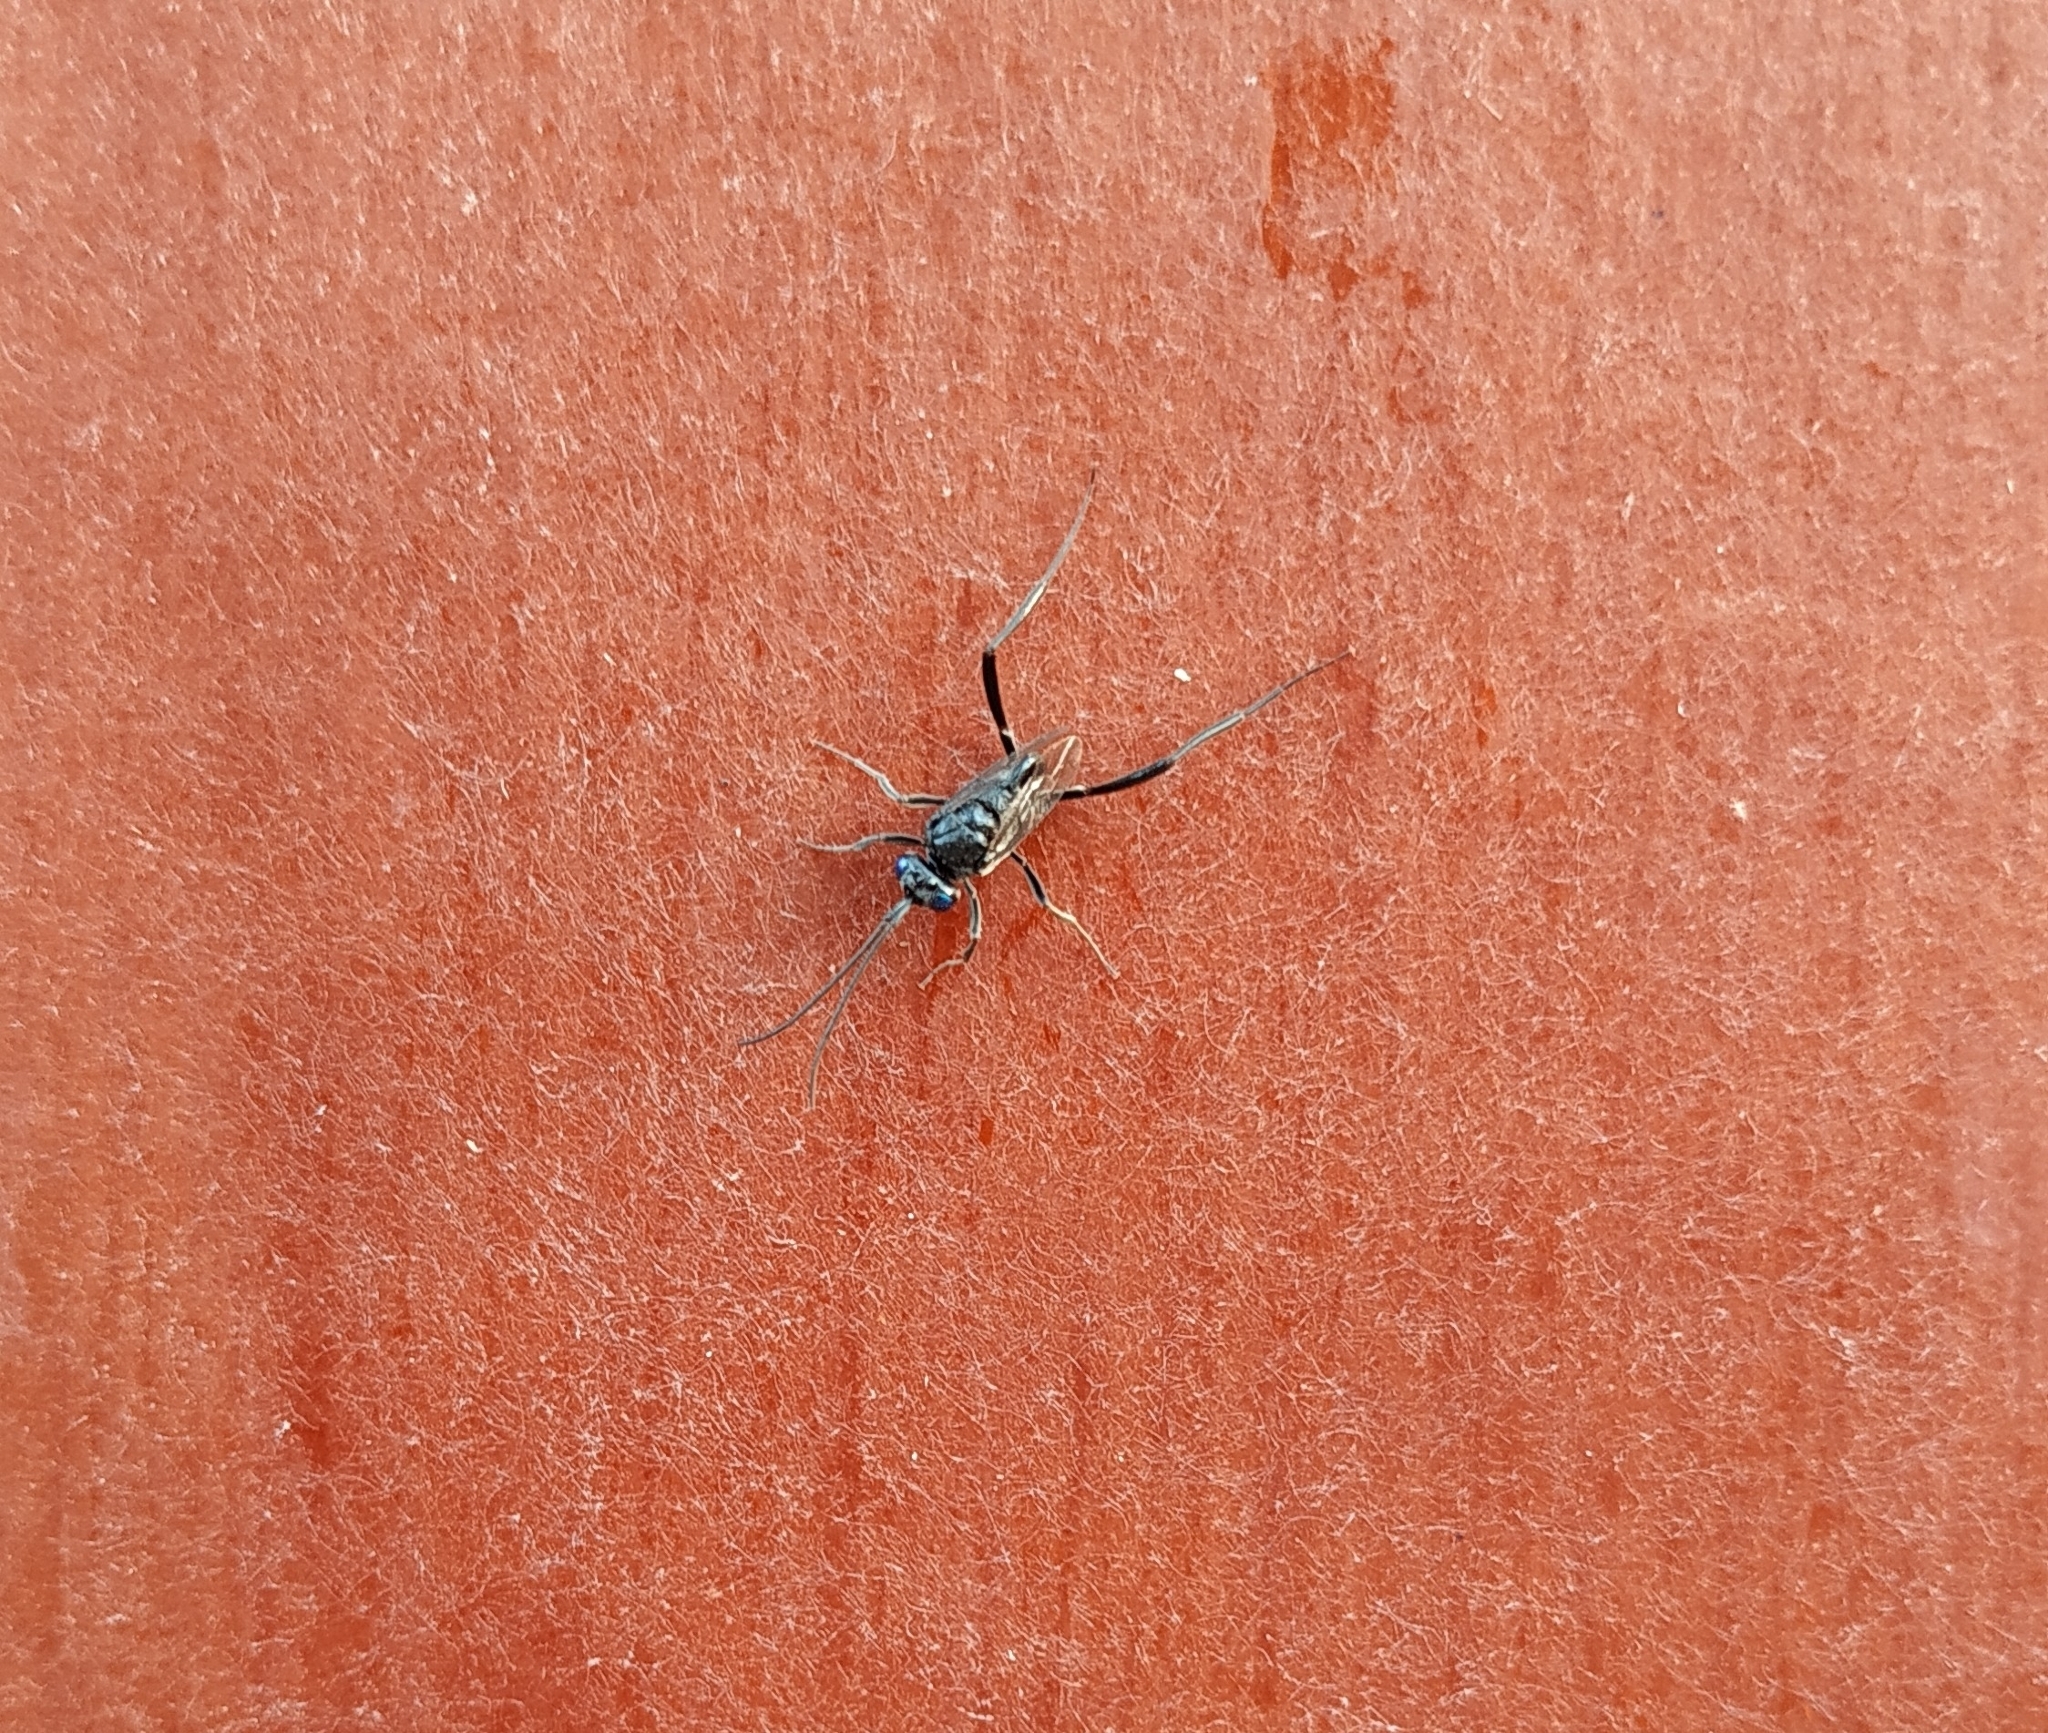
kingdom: Animalia
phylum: Arthropoda
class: Insecta
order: Hymenoptera
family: Evaniidae
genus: Evania
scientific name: Evania appendigaster
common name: Ensign wasp
